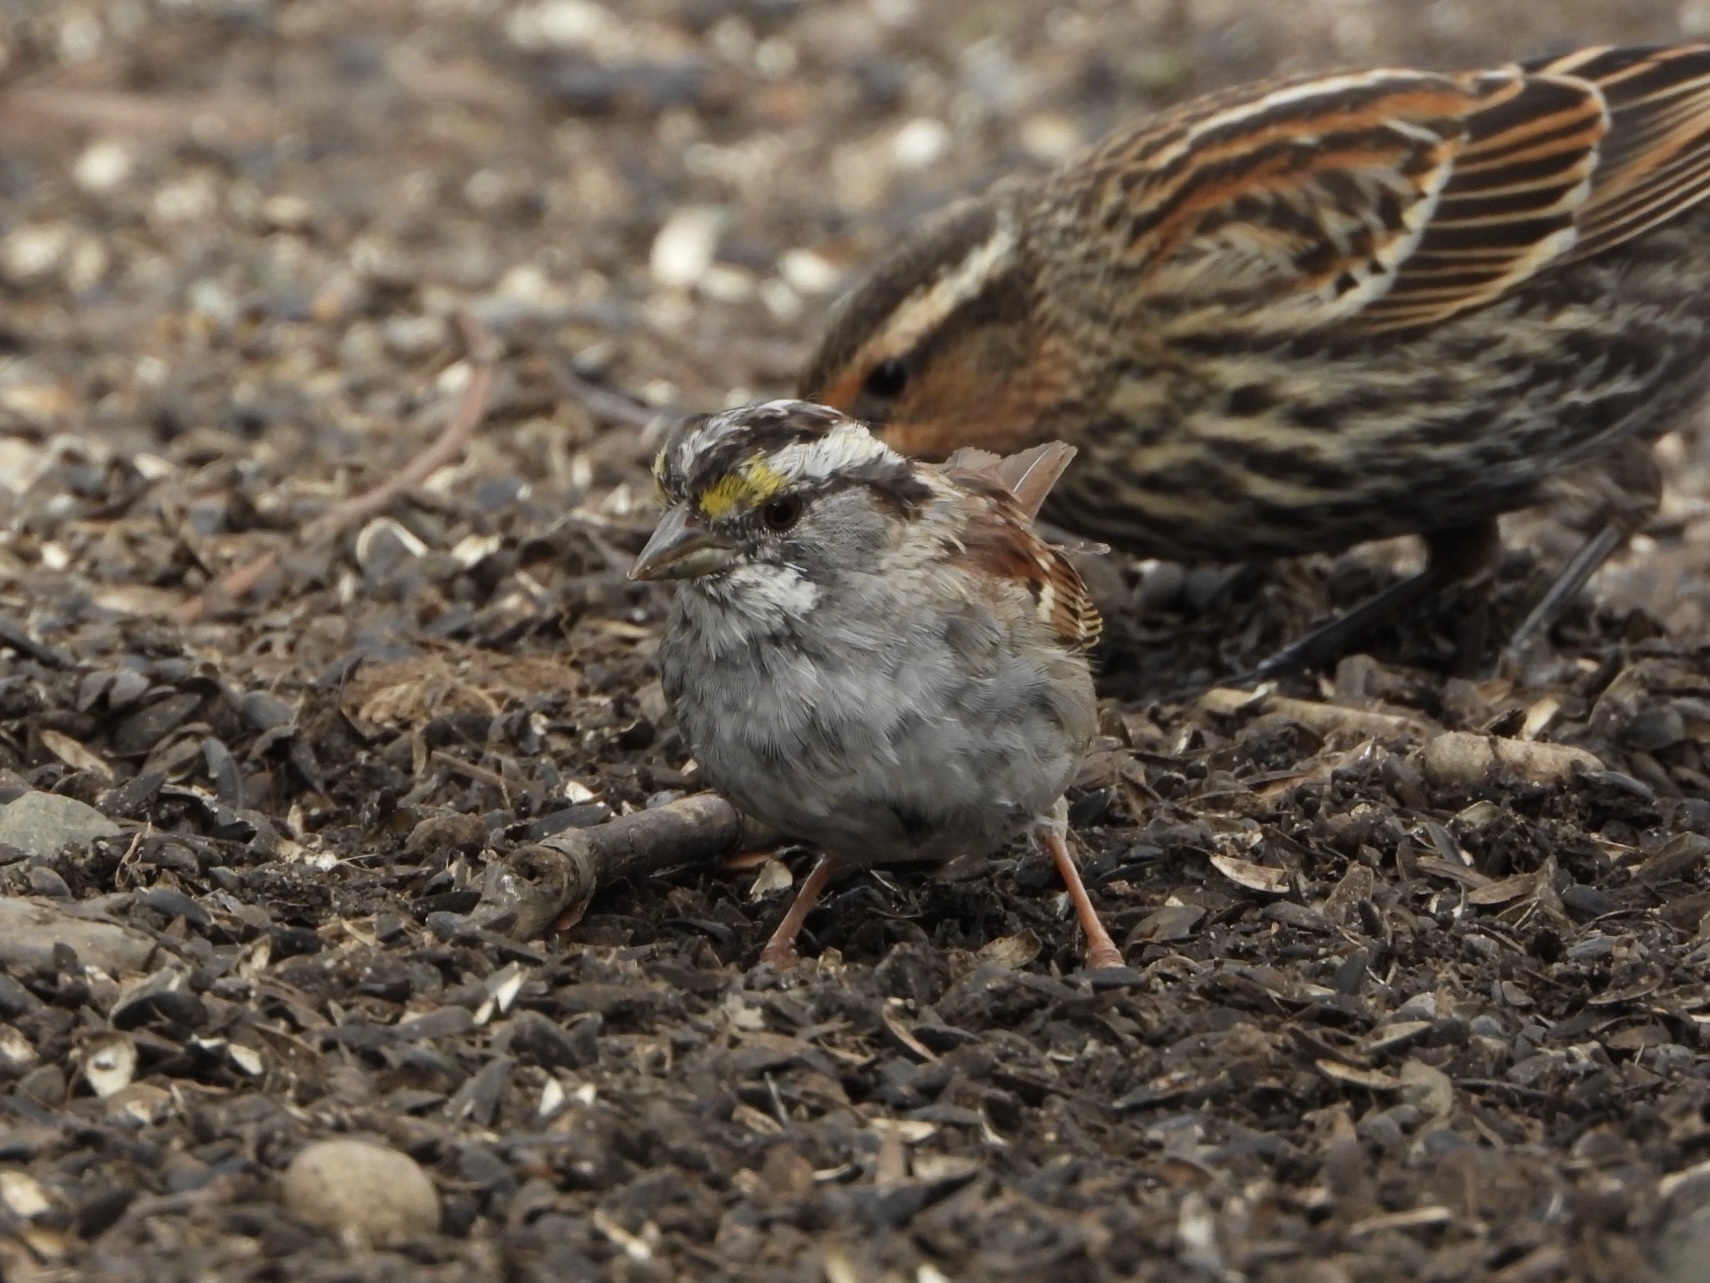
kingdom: Animalia
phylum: Chordata
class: Aves
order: Passeriformes
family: Passerellidae
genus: Zonotrichia
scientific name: Zonotrichia albicollis
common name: White-throated sparrow
